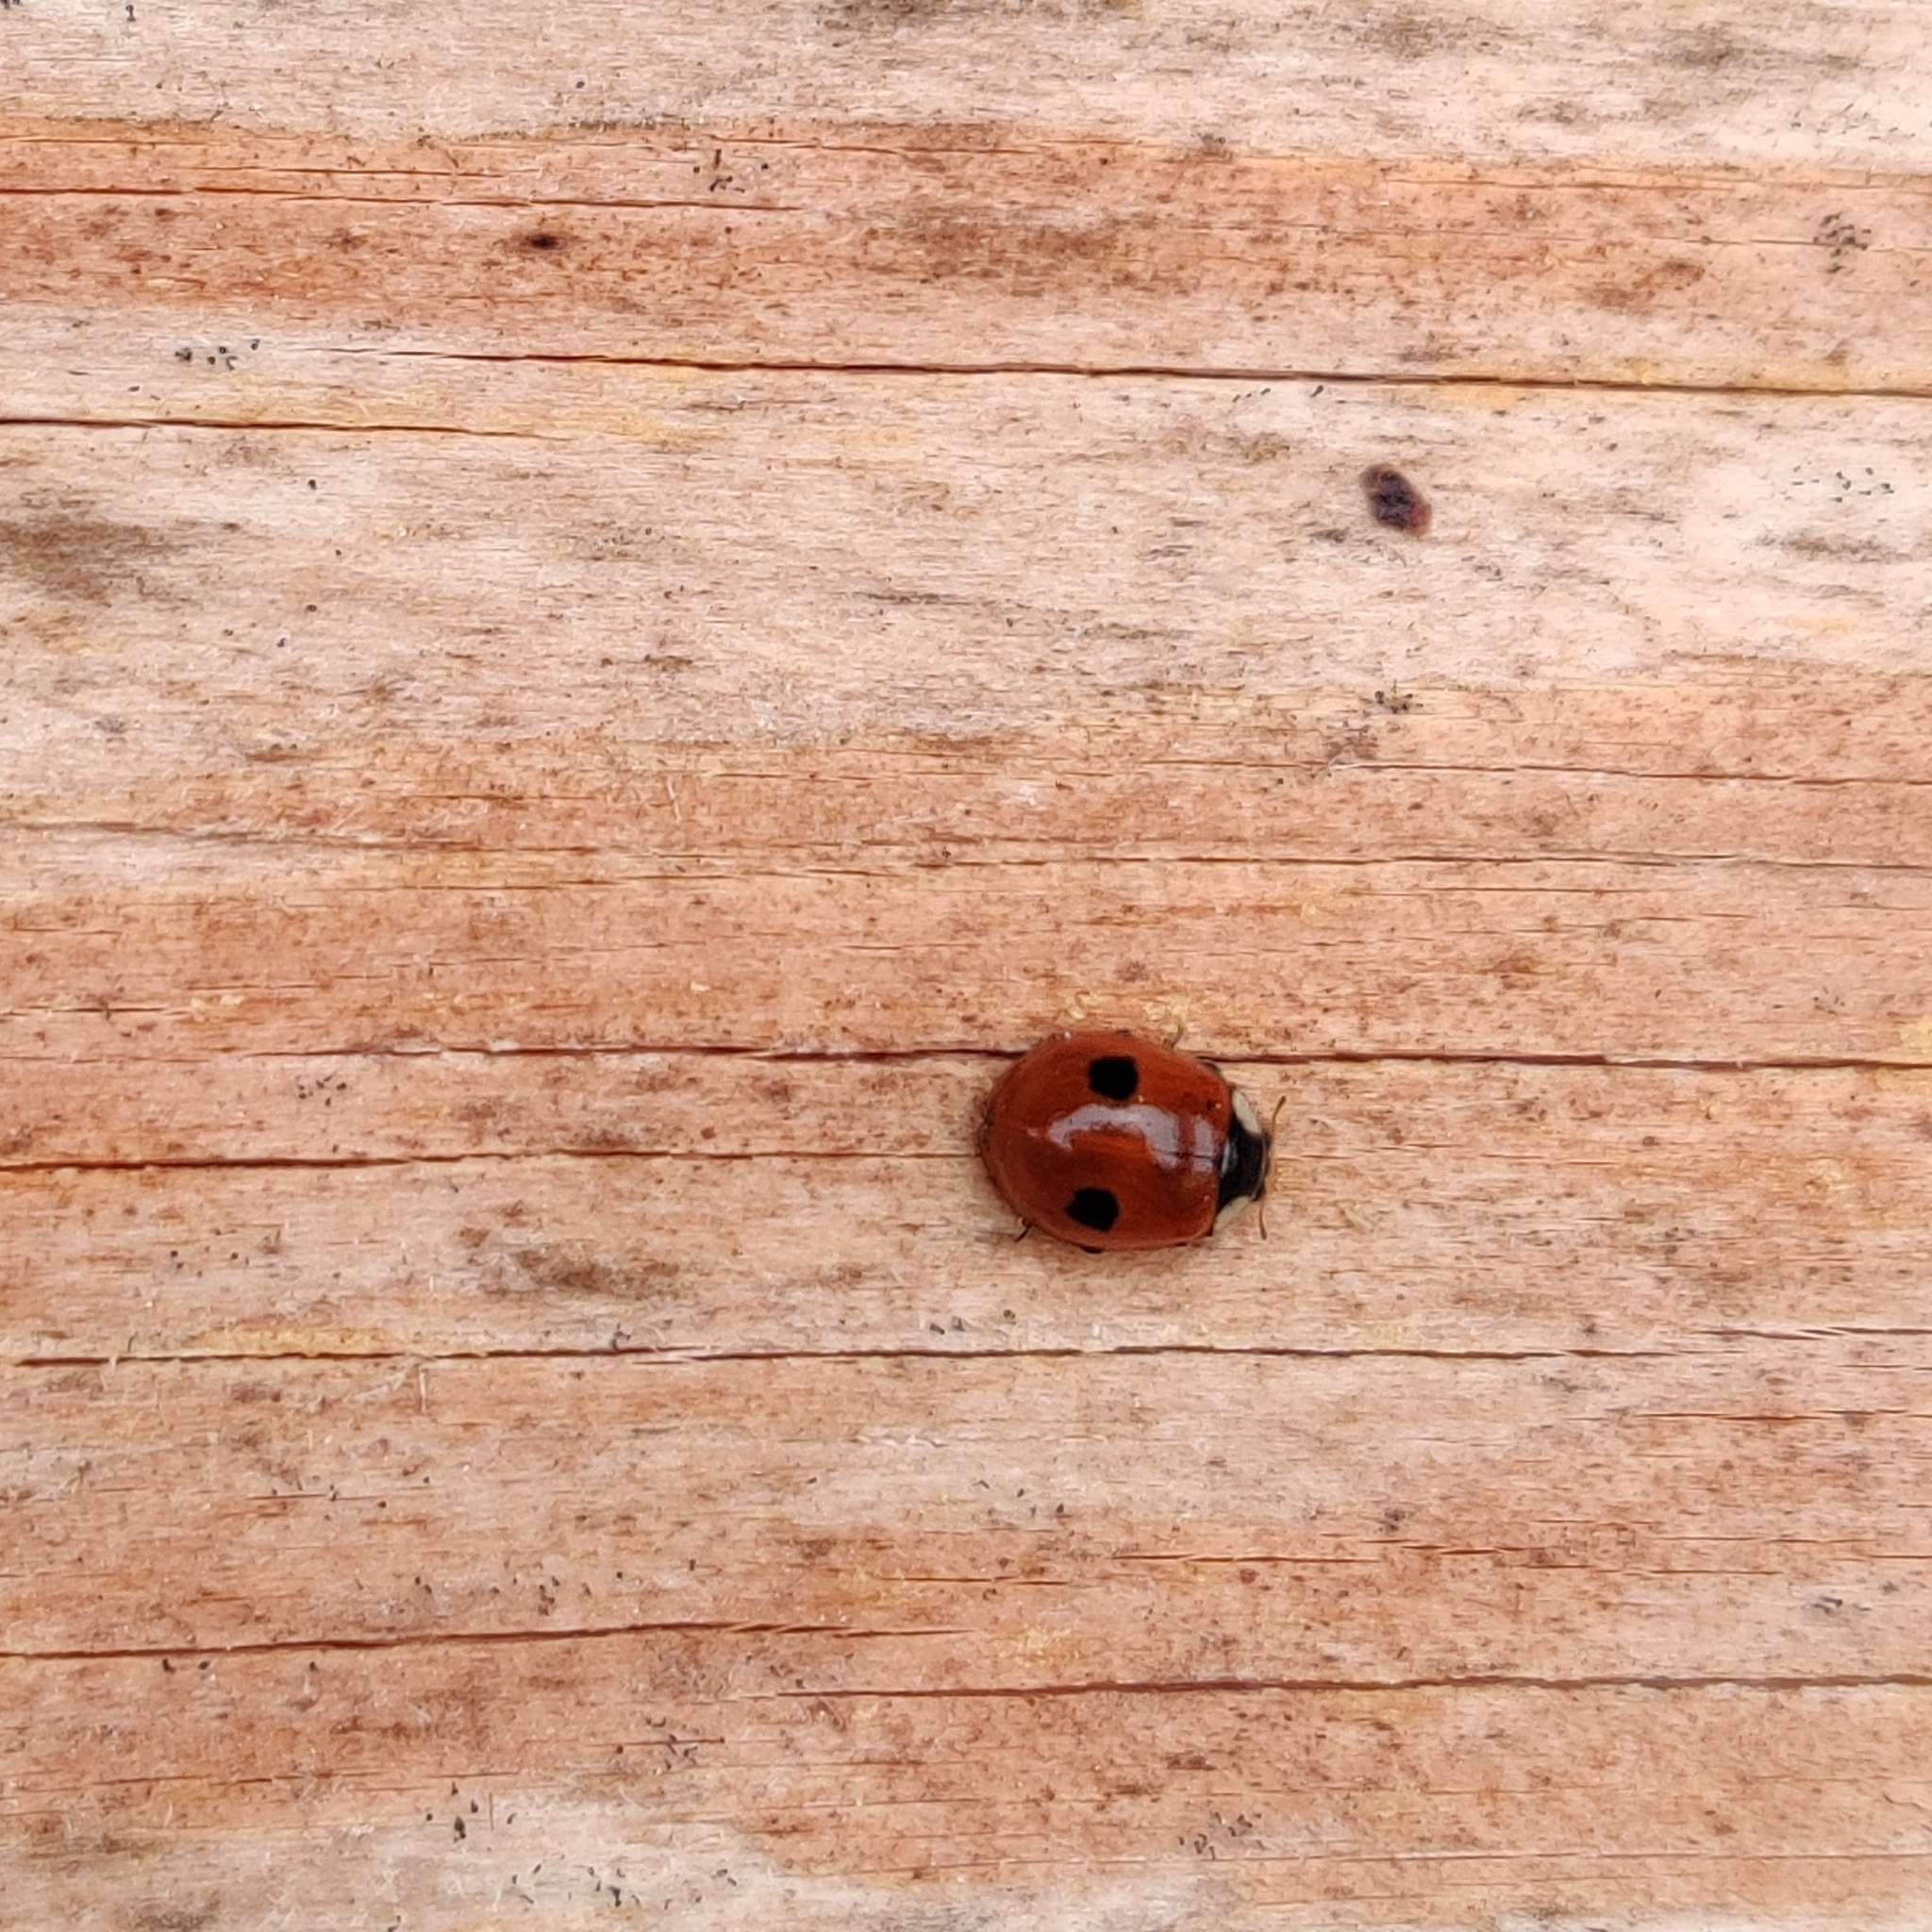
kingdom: Animalia
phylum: Arthropoda
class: Insecta
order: Coleoptera
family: Coccinellidae
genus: Adalia
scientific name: Adalia bipunctata
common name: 2-spot ladybird
